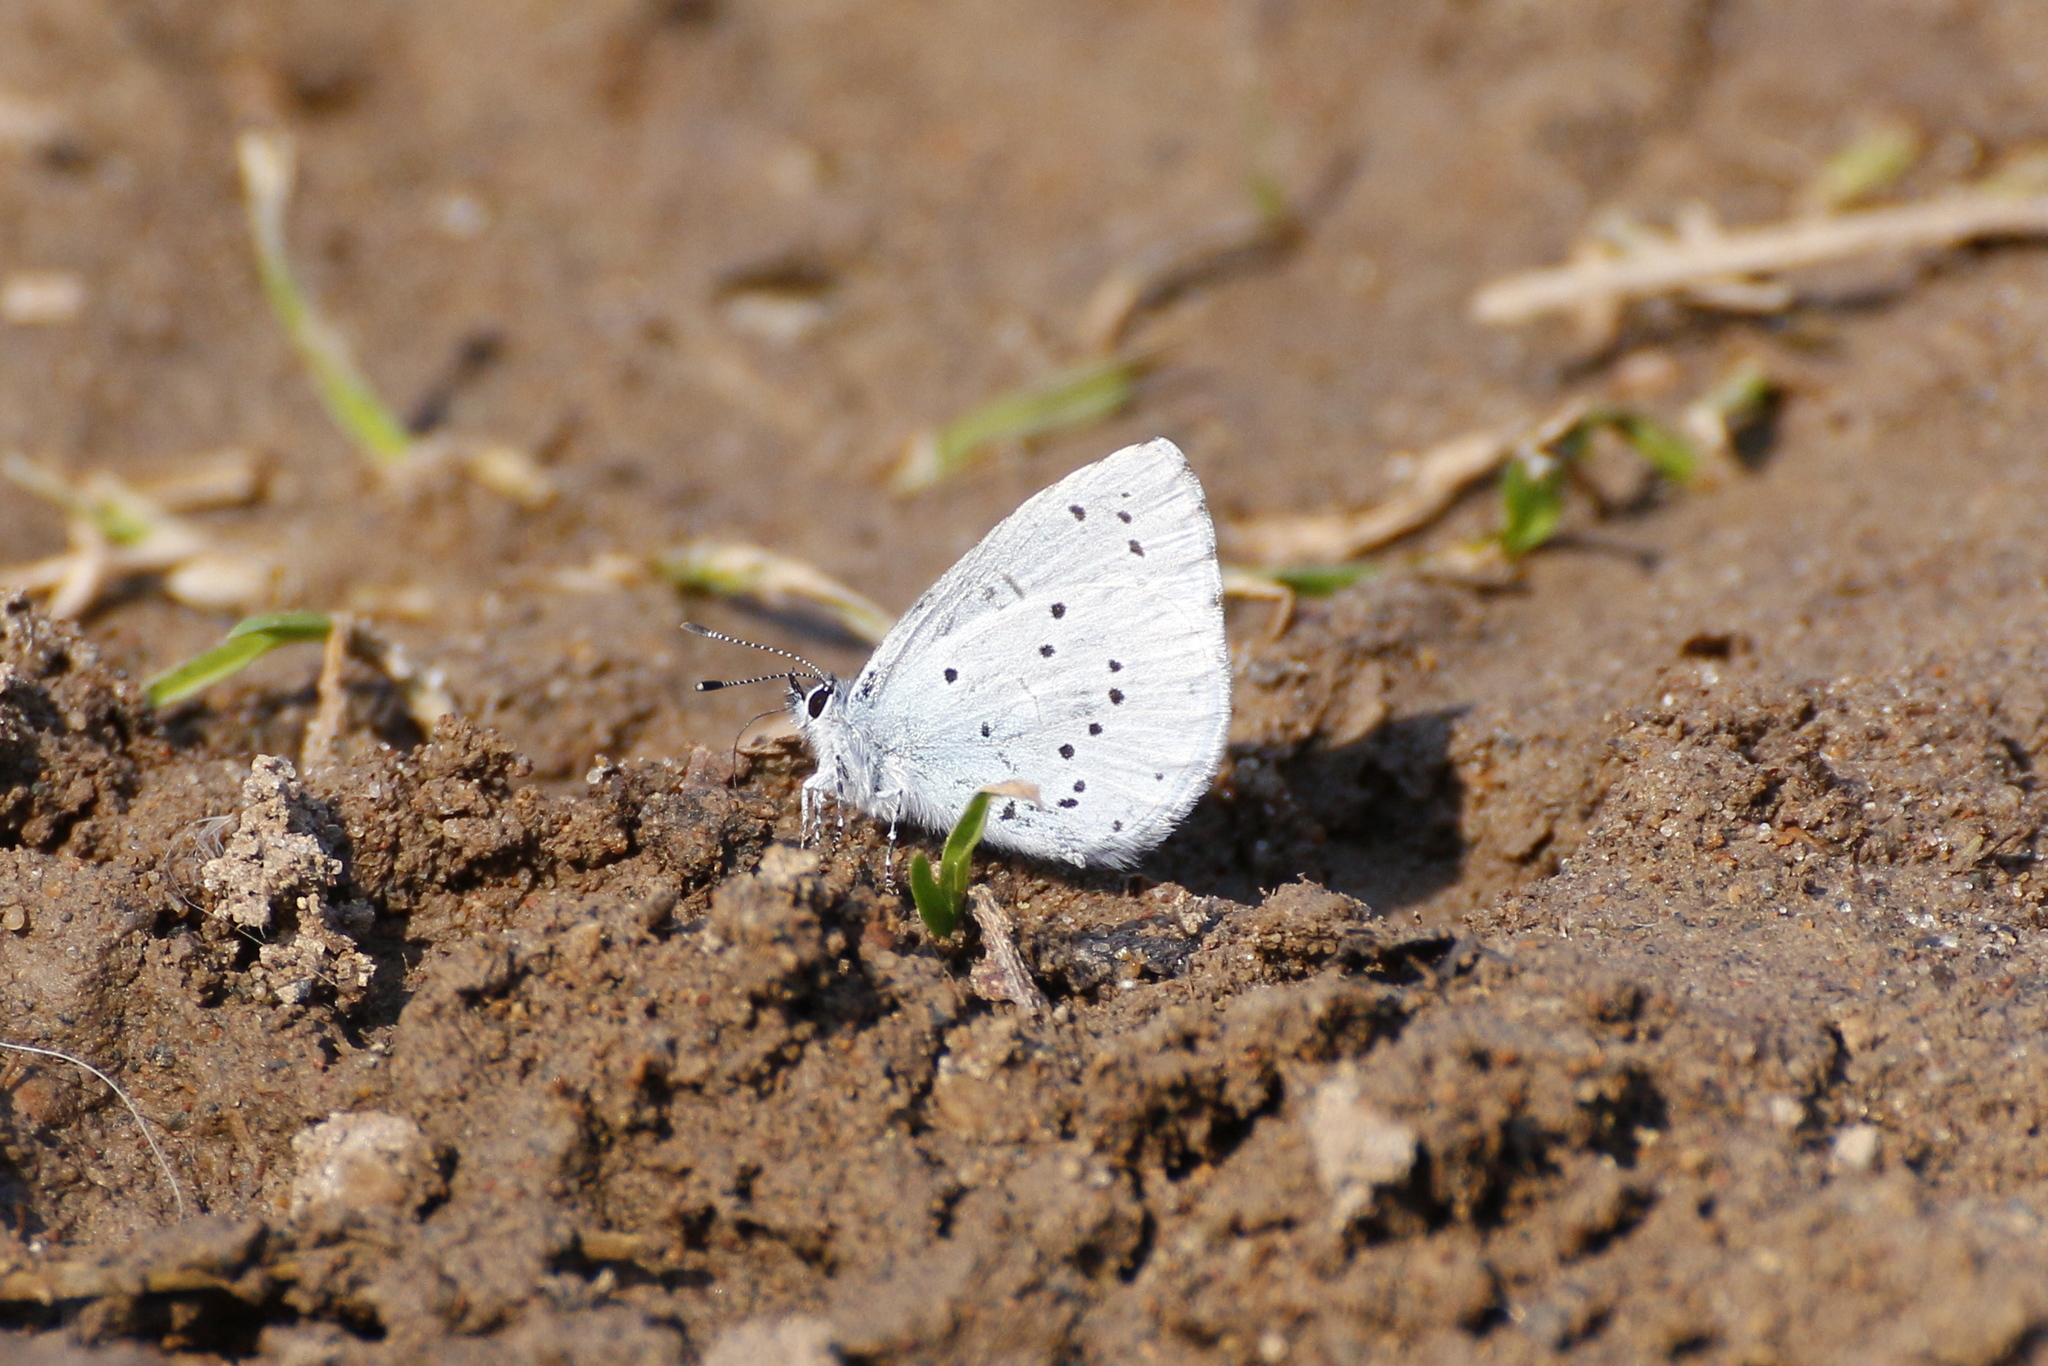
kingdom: Animalia
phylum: Arthropoda
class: Insecta
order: Lepidoptera
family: Lycaenidae
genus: Celastrina
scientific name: Celastrina argiolus
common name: Holly blue
